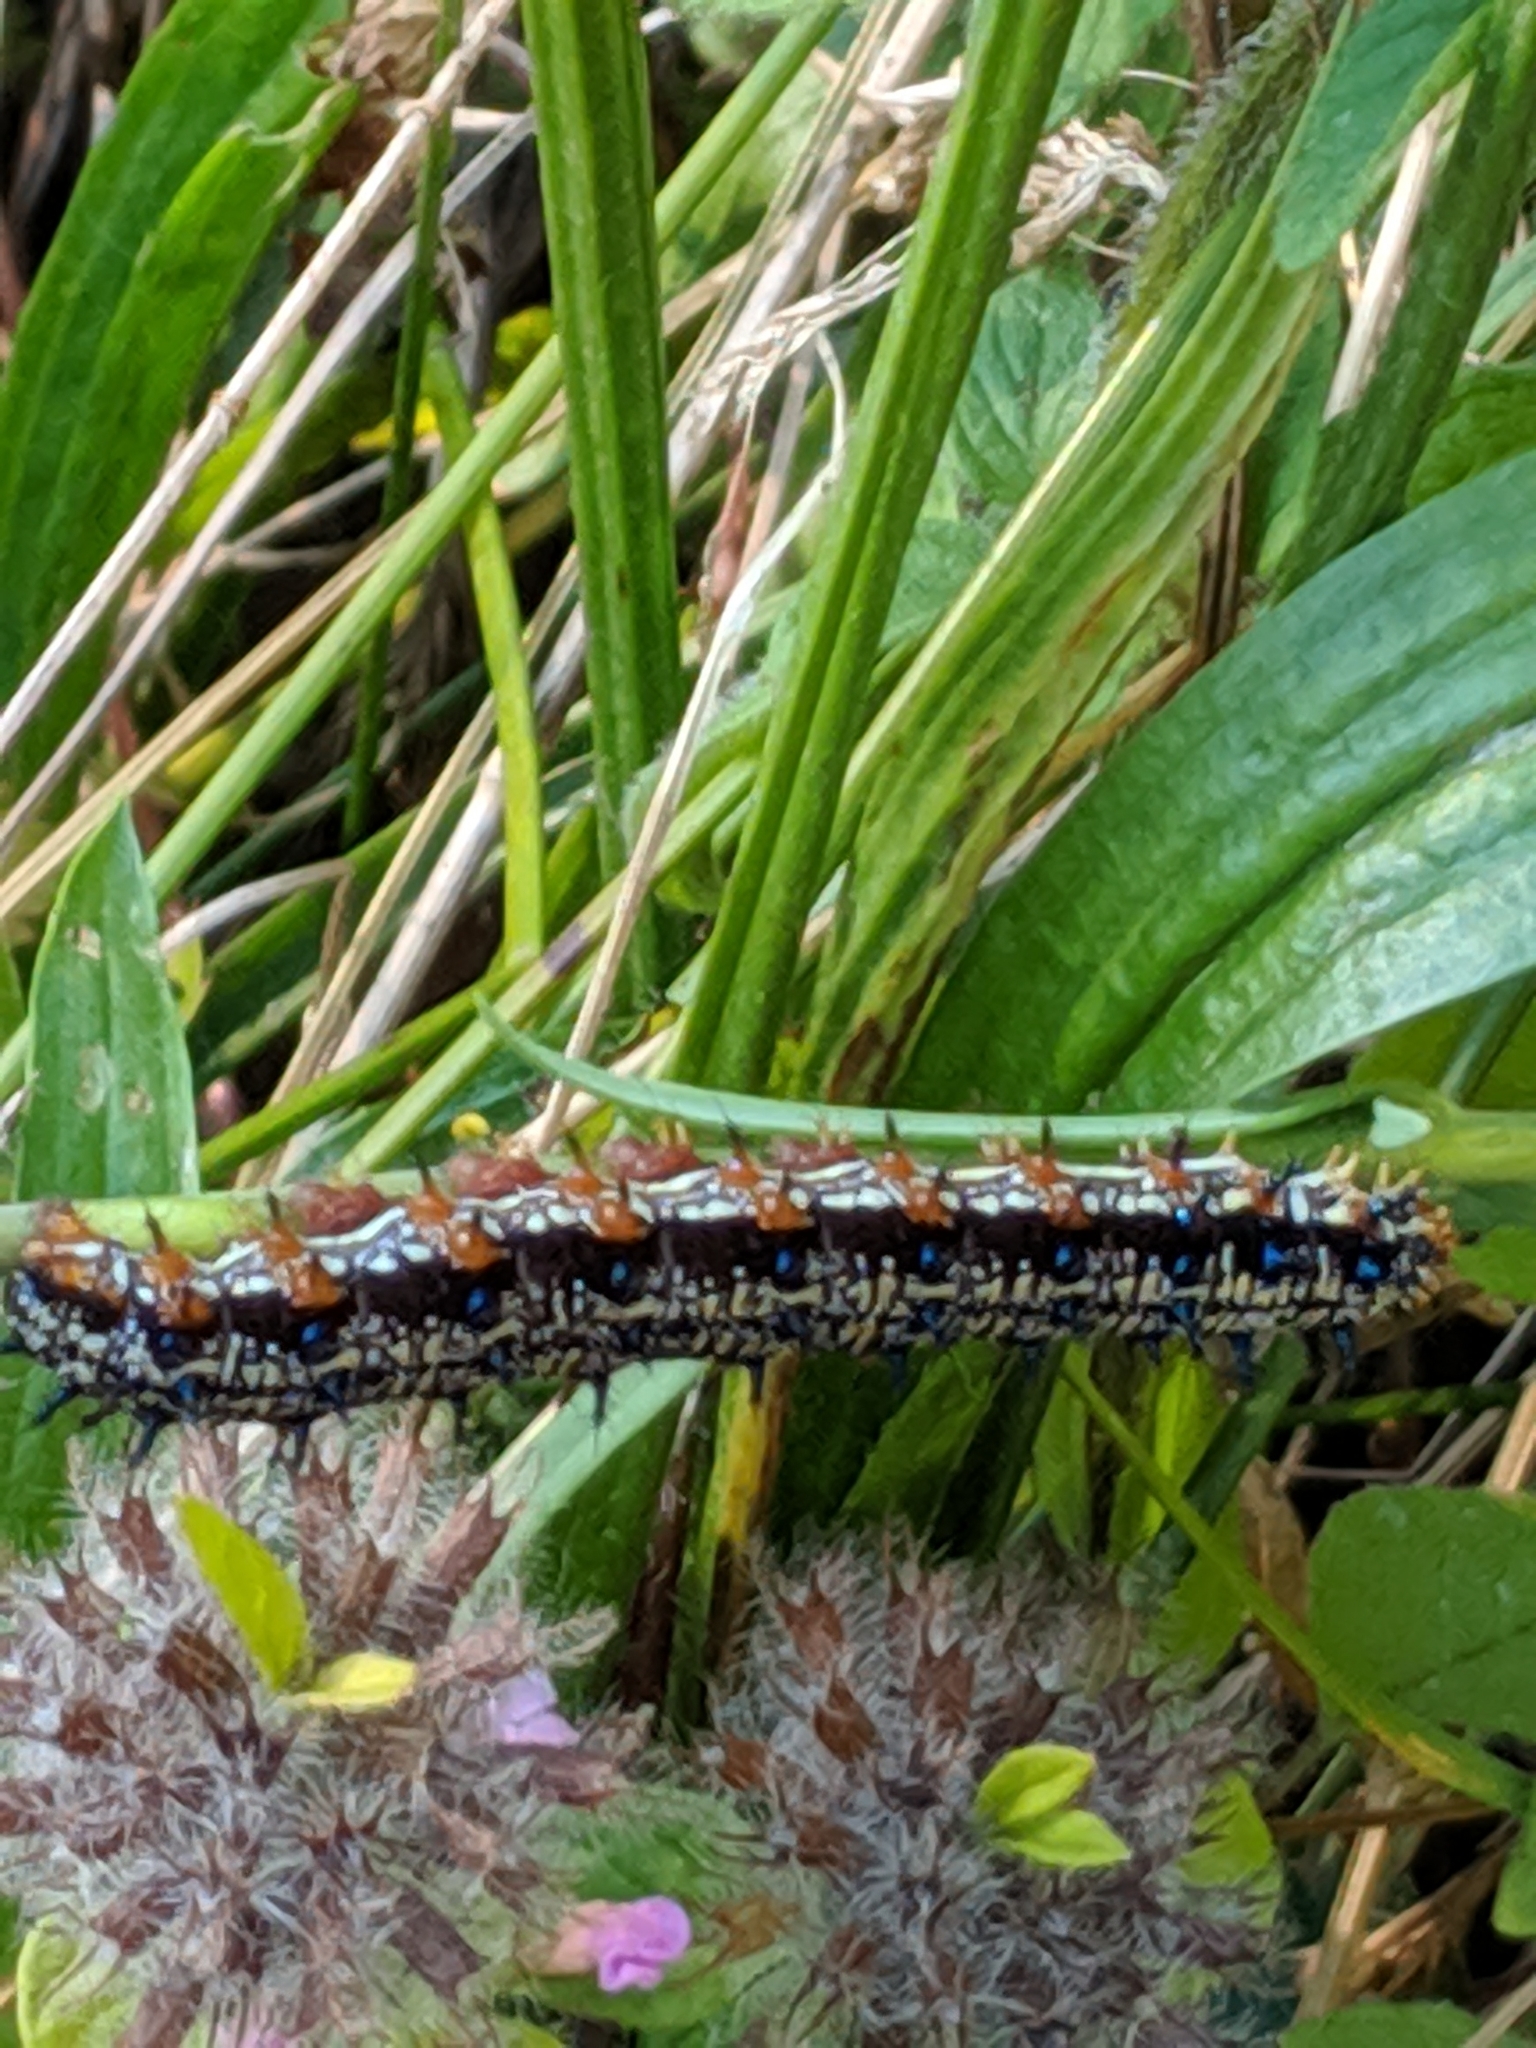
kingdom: Animalia
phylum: Arthropoda
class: Insecta
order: Lepidoptera
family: Nymphalidae
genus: Junonia
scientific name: Junonia coenia
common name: Common buckeye
